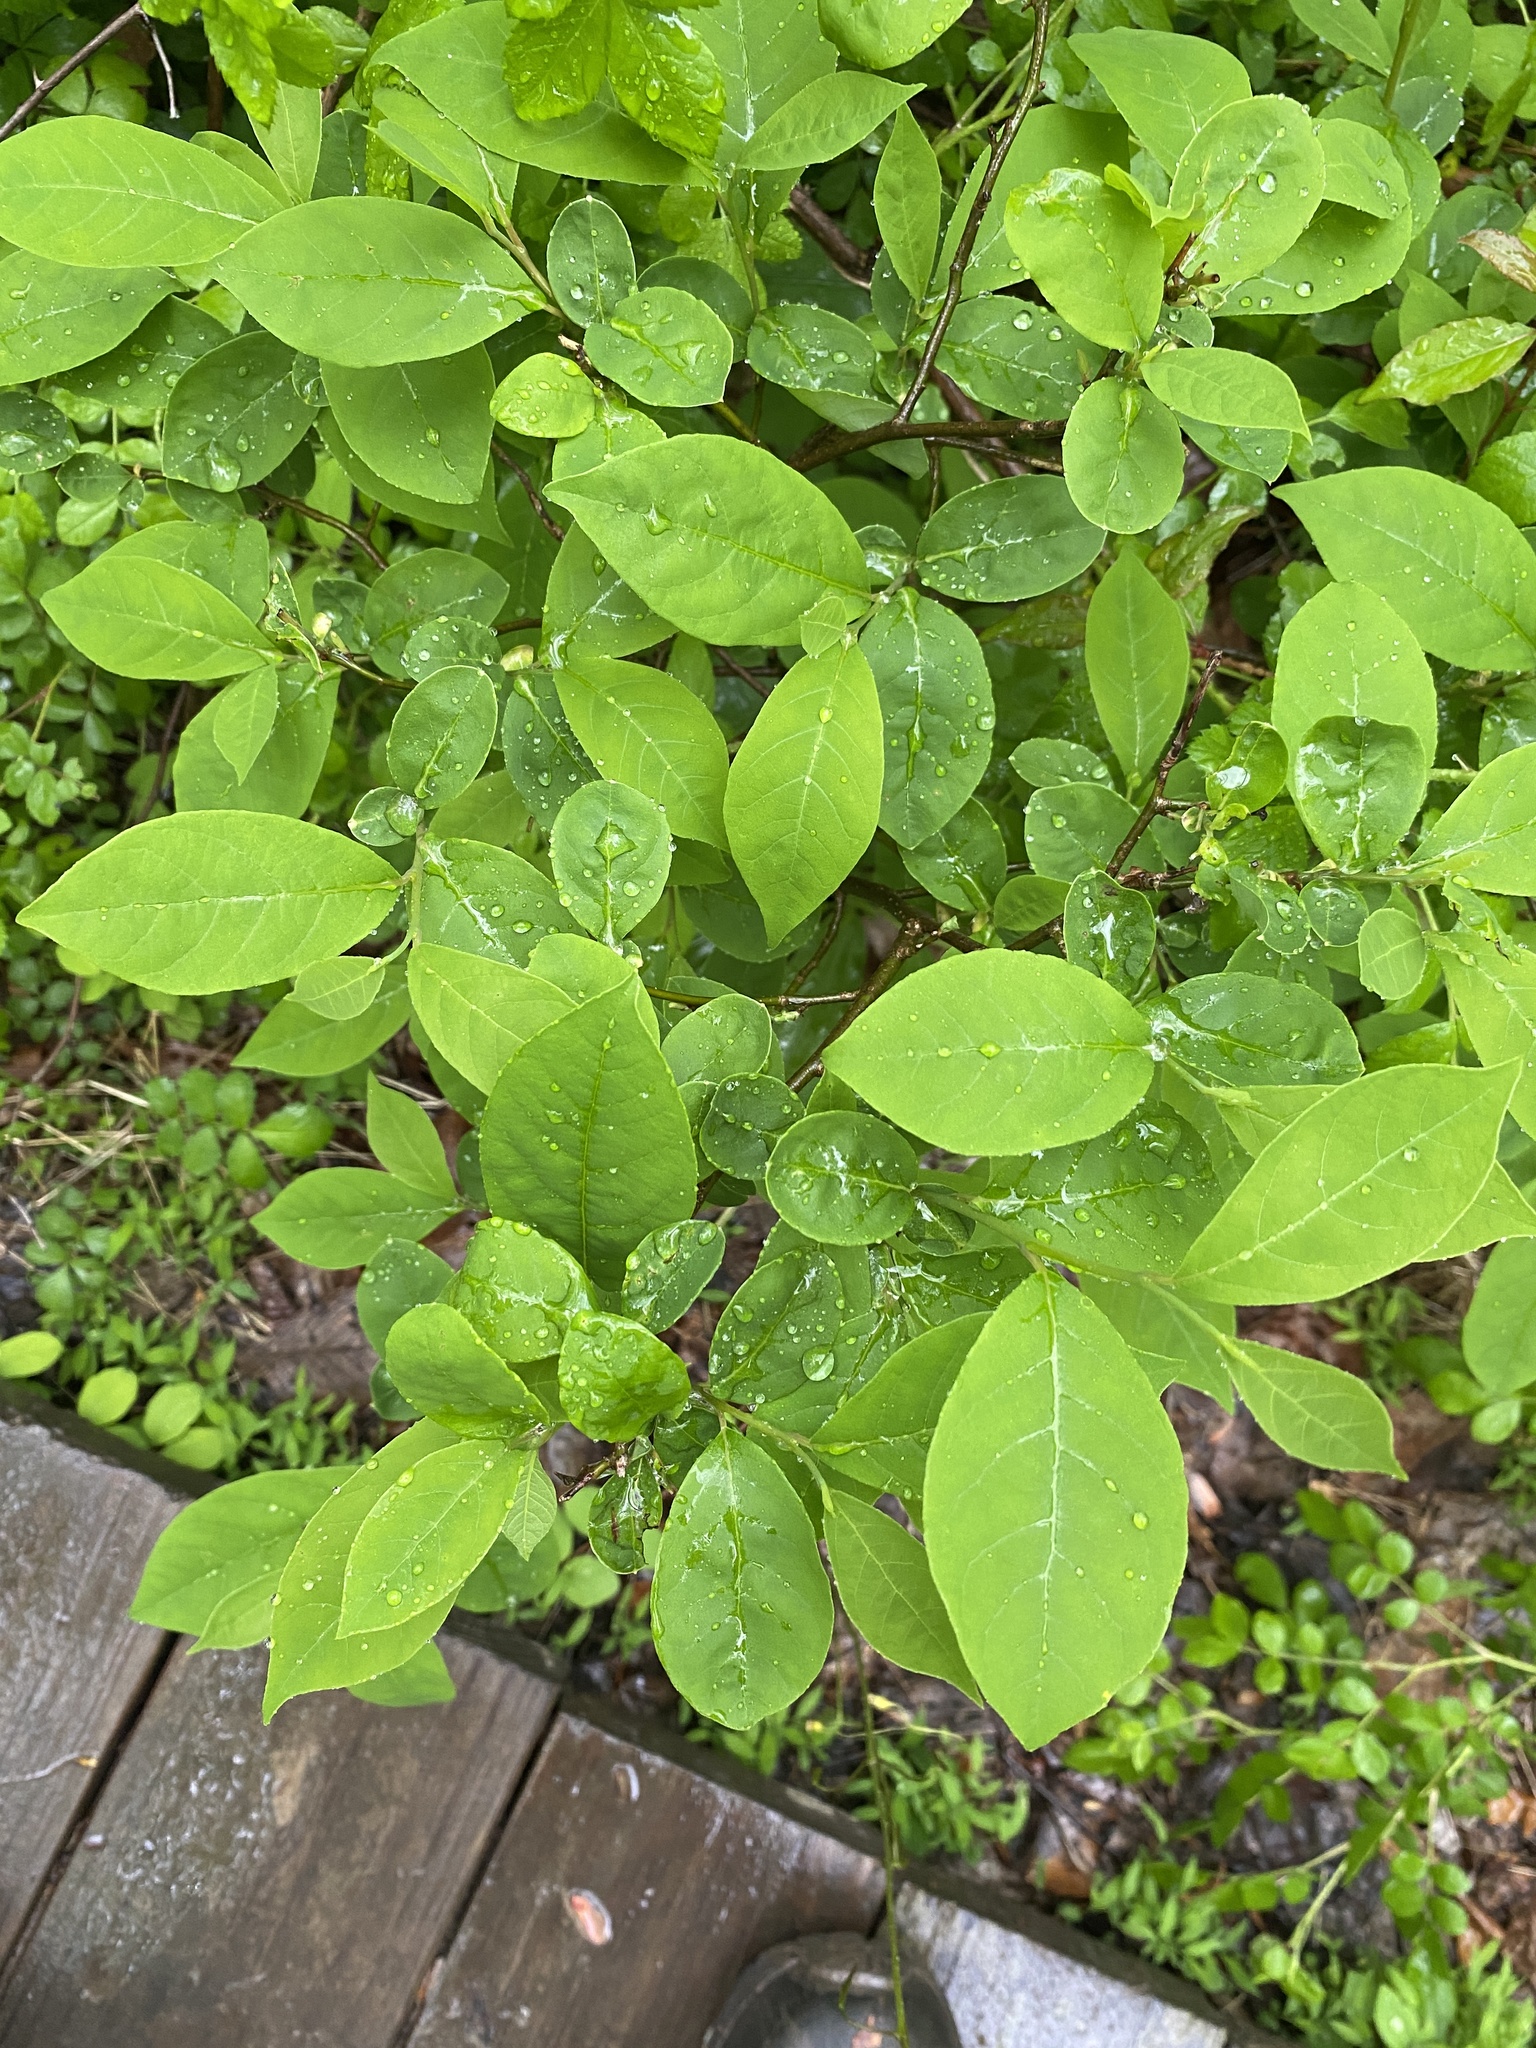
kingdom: Plantae
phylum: Tracheophyta
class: Magnoliopsida
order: Laurales
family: Lauraceae
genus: Lindera
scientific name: Lindera benzoin
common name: Spicebush
